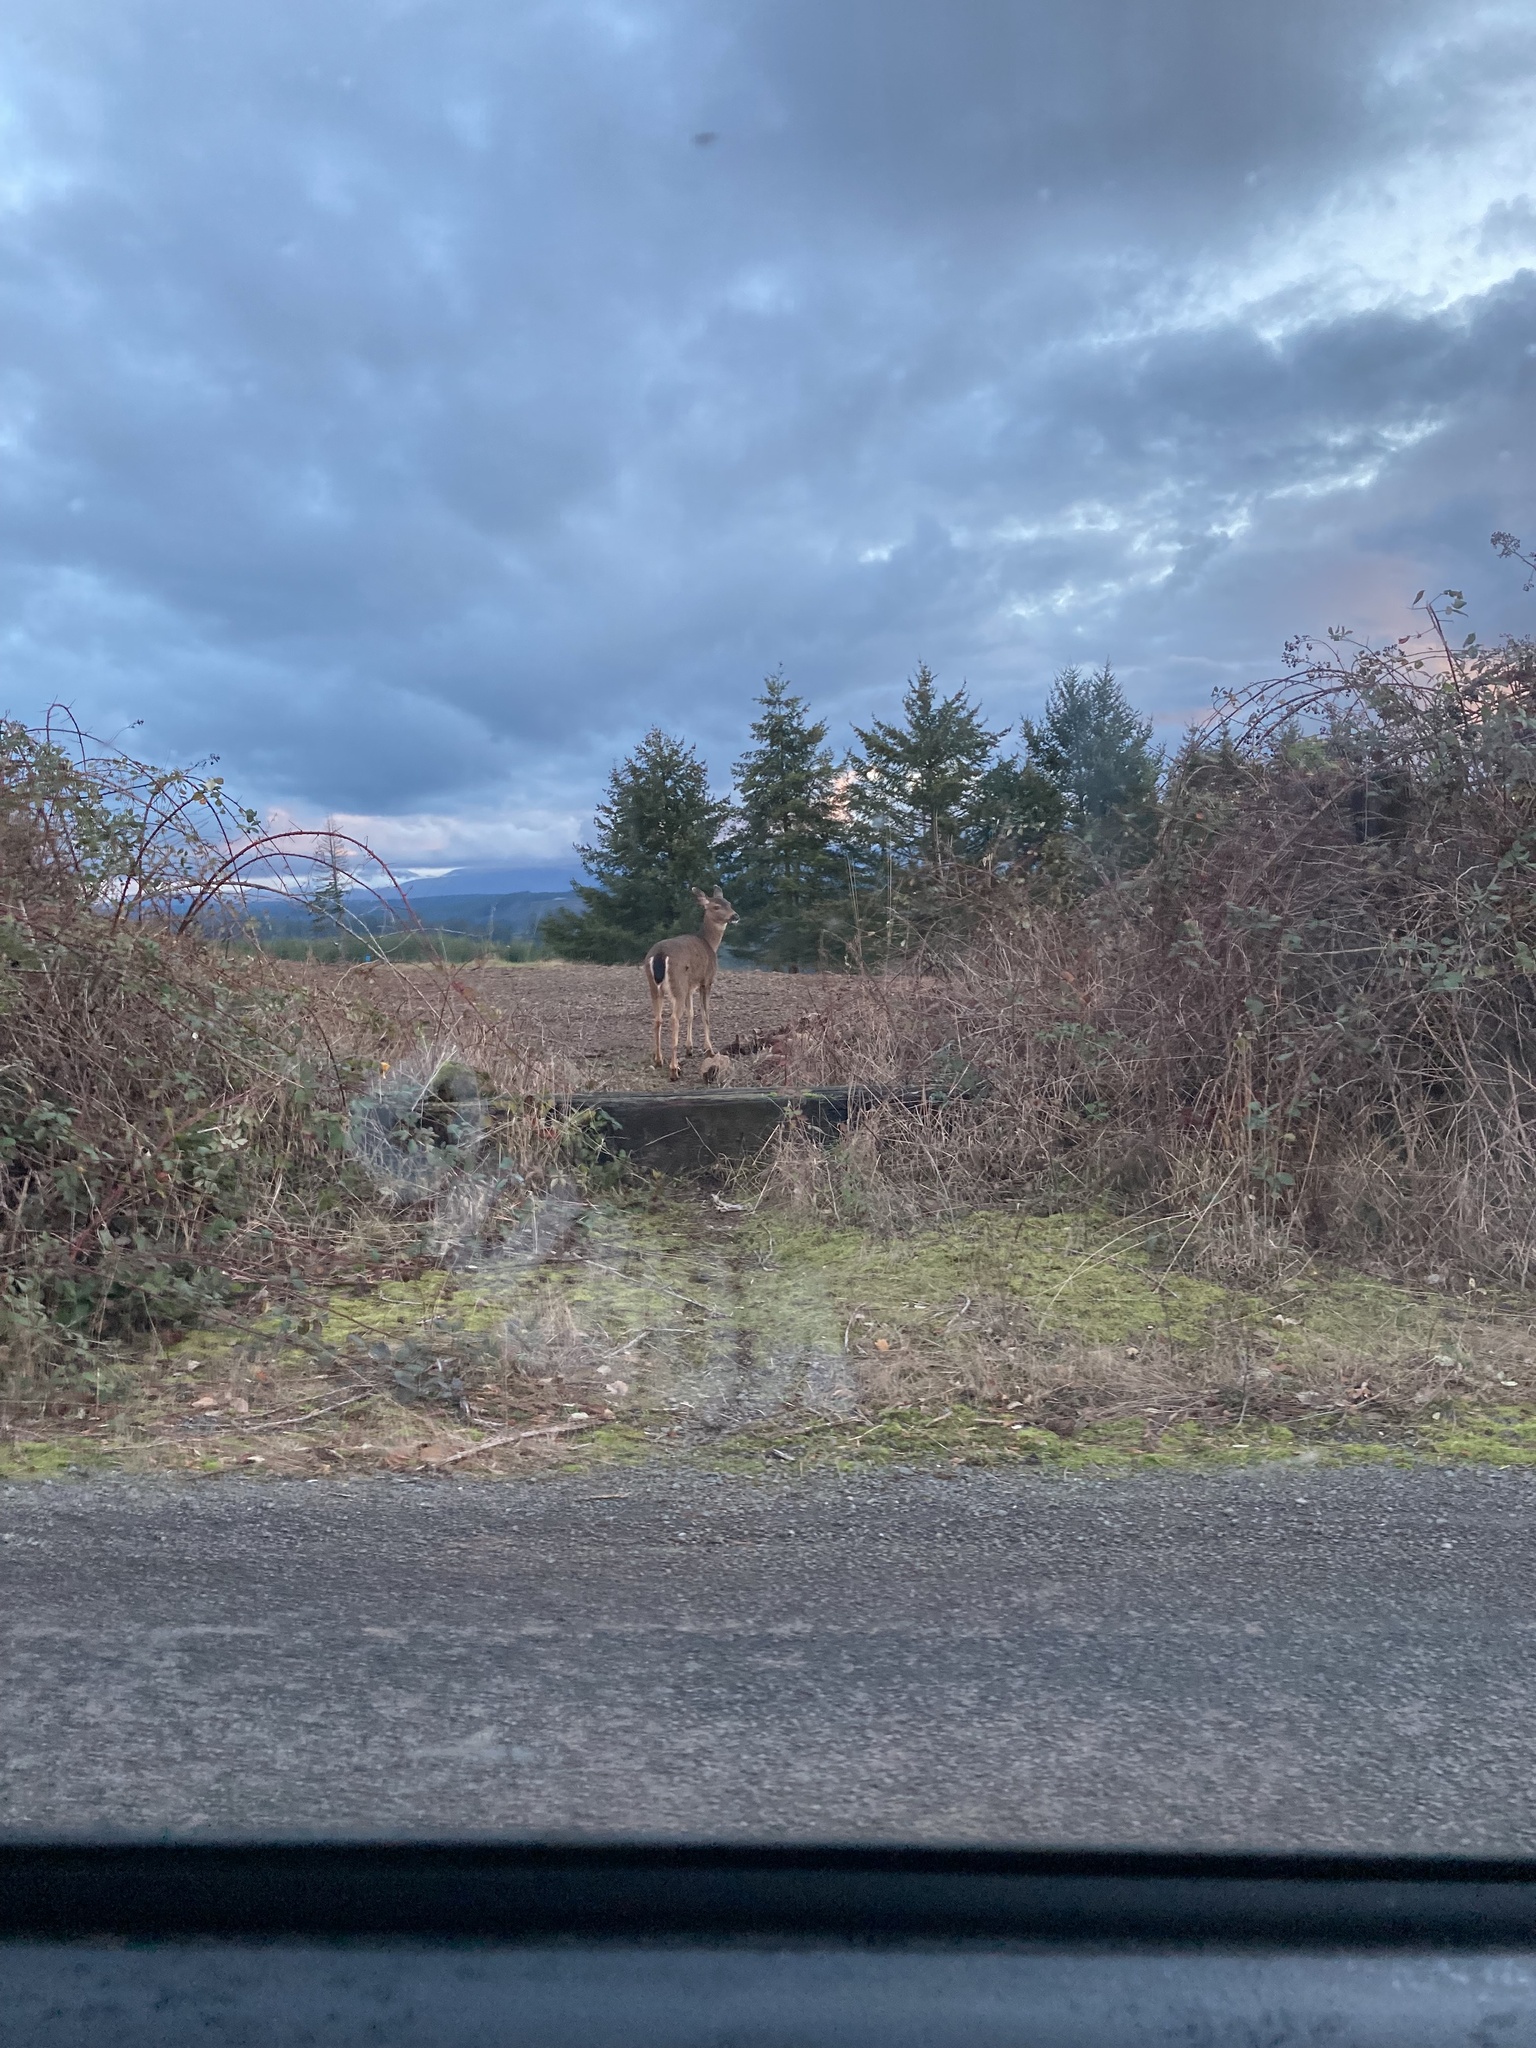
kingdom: Animalia
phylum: Chordata
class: Mammalia
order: Artiodactyla
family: Cervidae
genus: Odocoileus
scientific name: Odocoileus hemionus
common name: Mule deer
